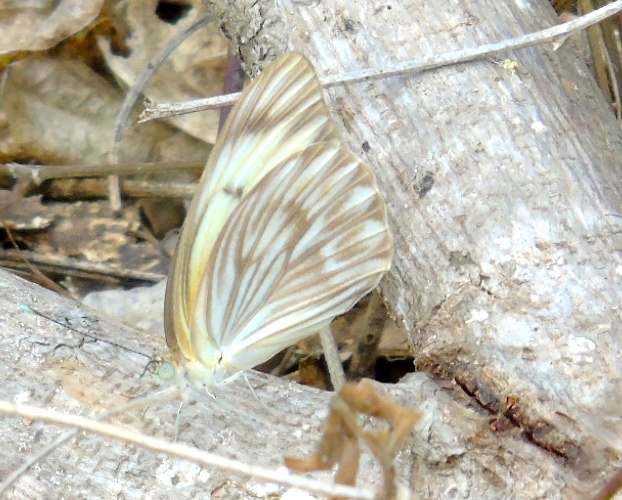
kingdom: Animalia
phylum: Arthropoda
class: Insecta
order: Lepidoptera
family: Pieridae
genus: Ascia
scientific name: Ascia monuste
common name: Great southern white
